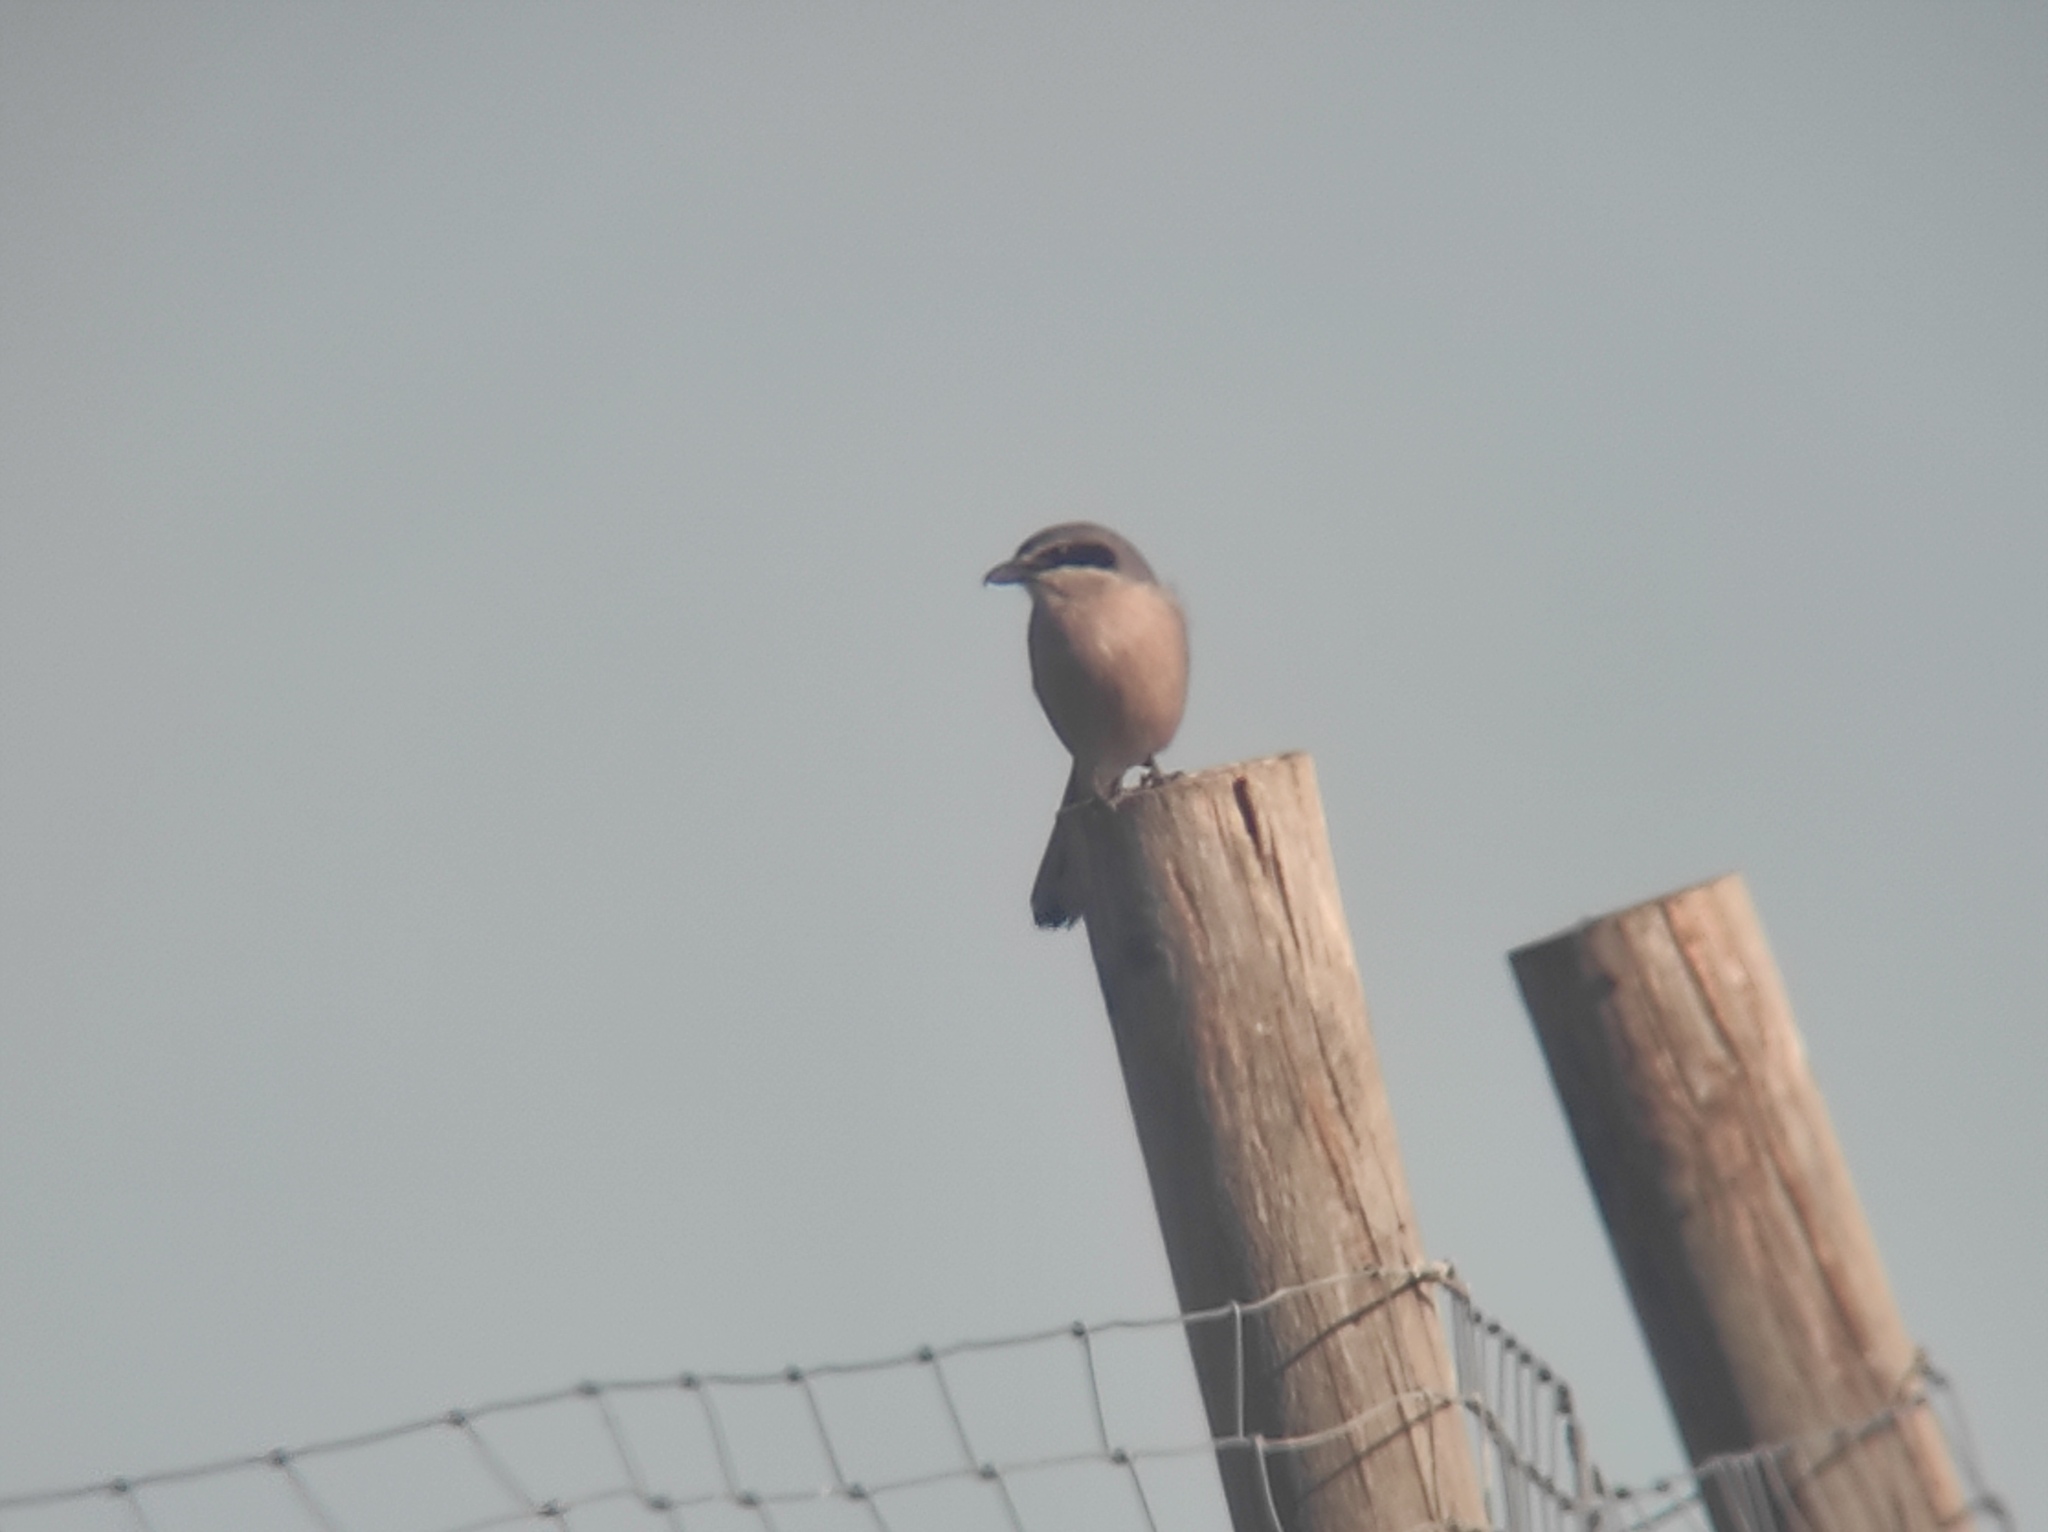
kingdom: Animalia
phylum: Chordata
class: Aves
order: Passeriformes
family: Laniidae
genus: Lanius
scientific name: Lanius meridionalis
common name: Iberian grey shrike
